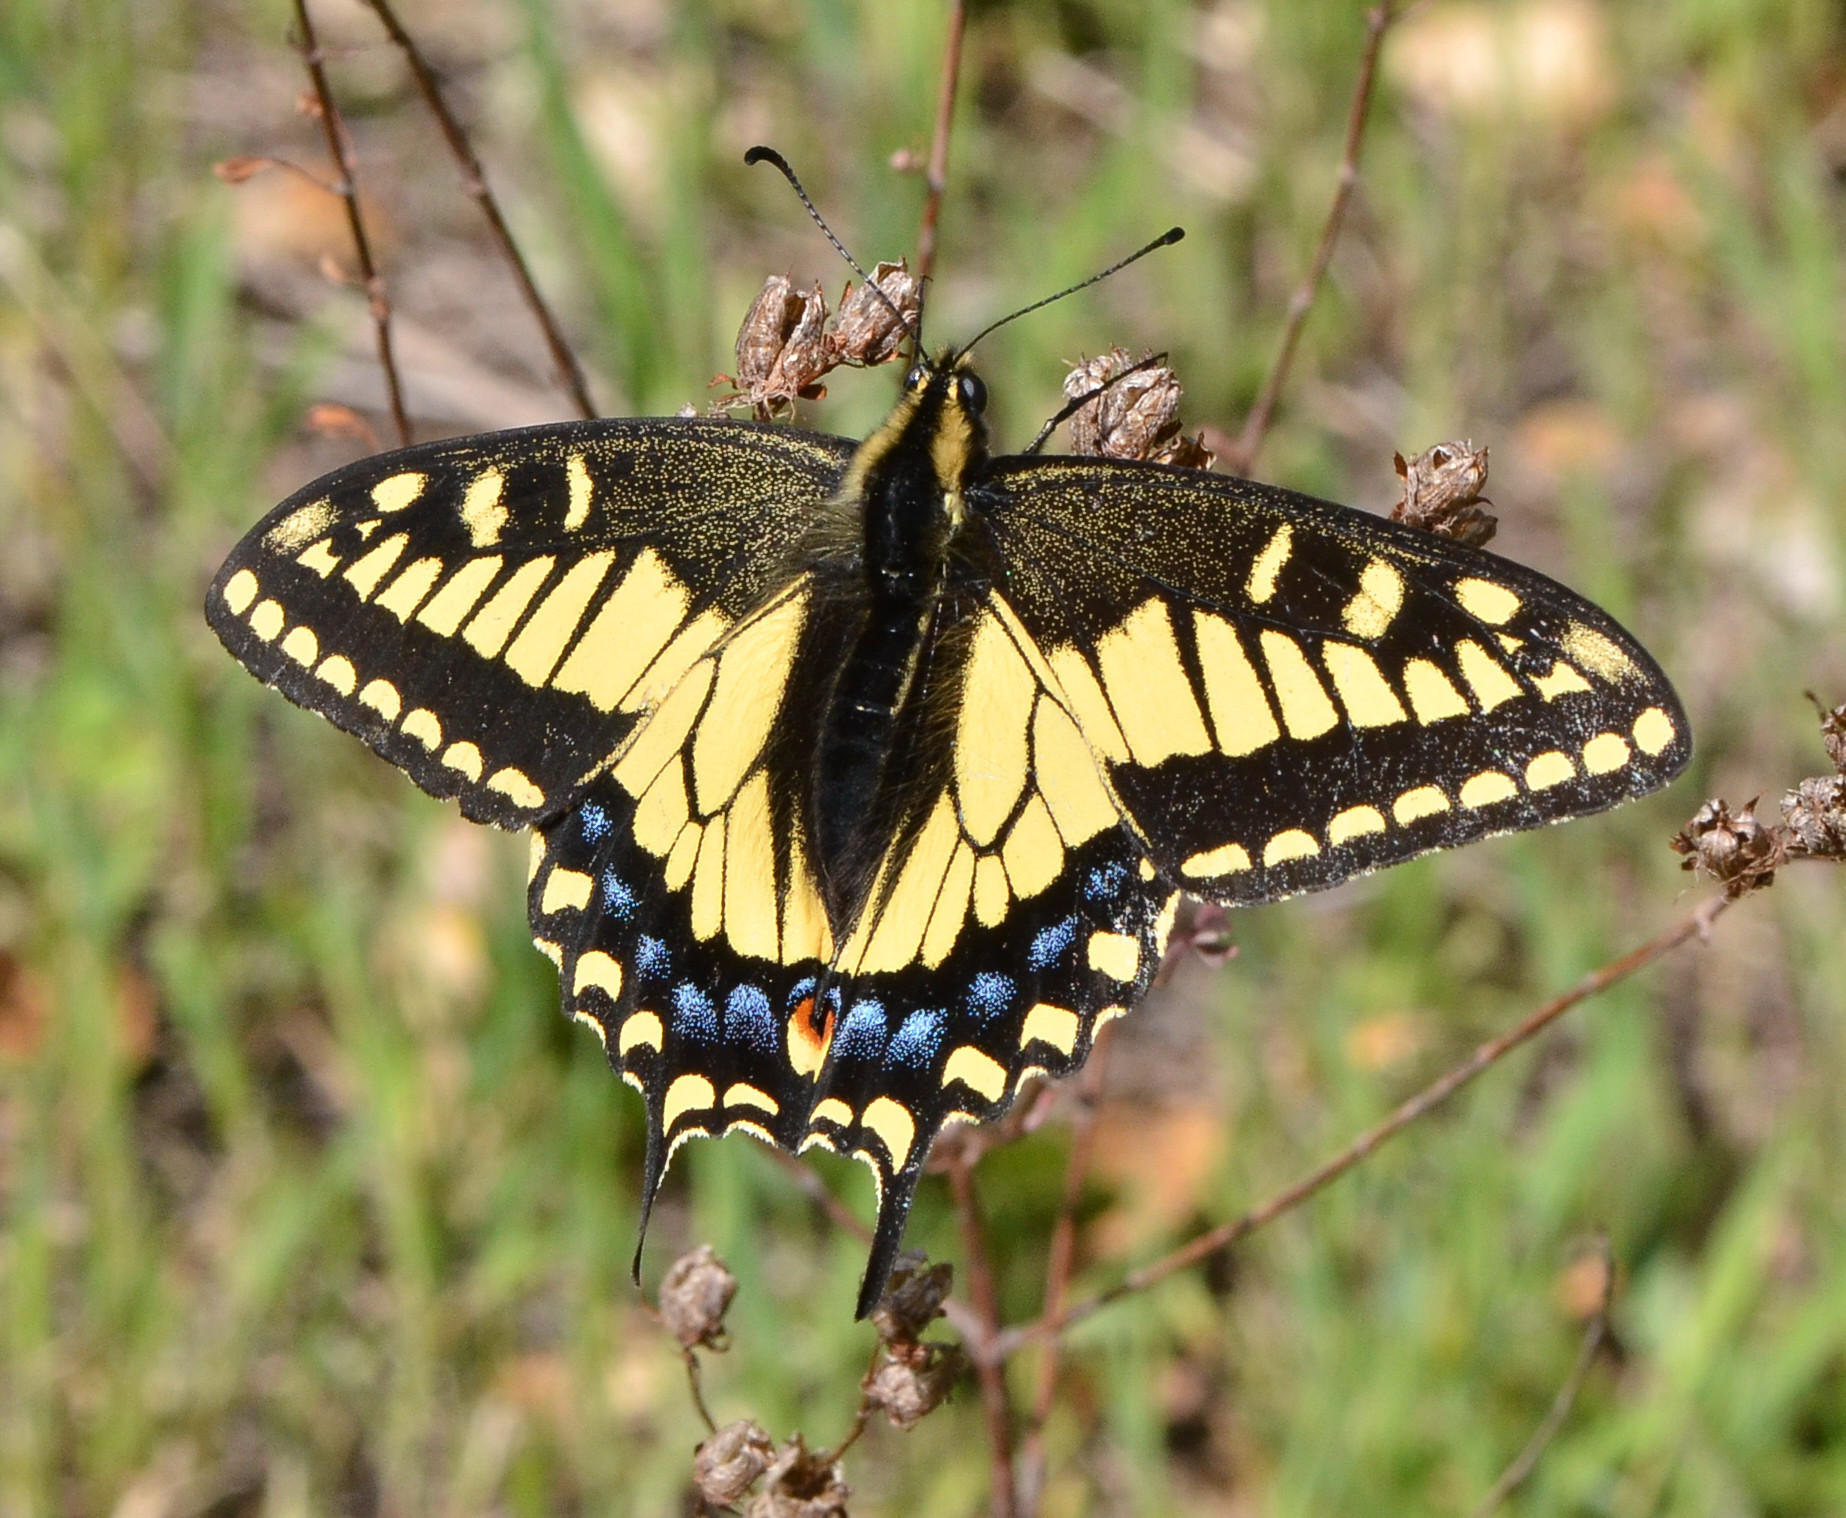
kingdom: Animalia
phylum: Arthropoda
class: Insecta
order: Lepidoptera
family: Papilionidae
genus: Papilio
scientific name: Papilio zelicaon
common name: Anise swallowtail
